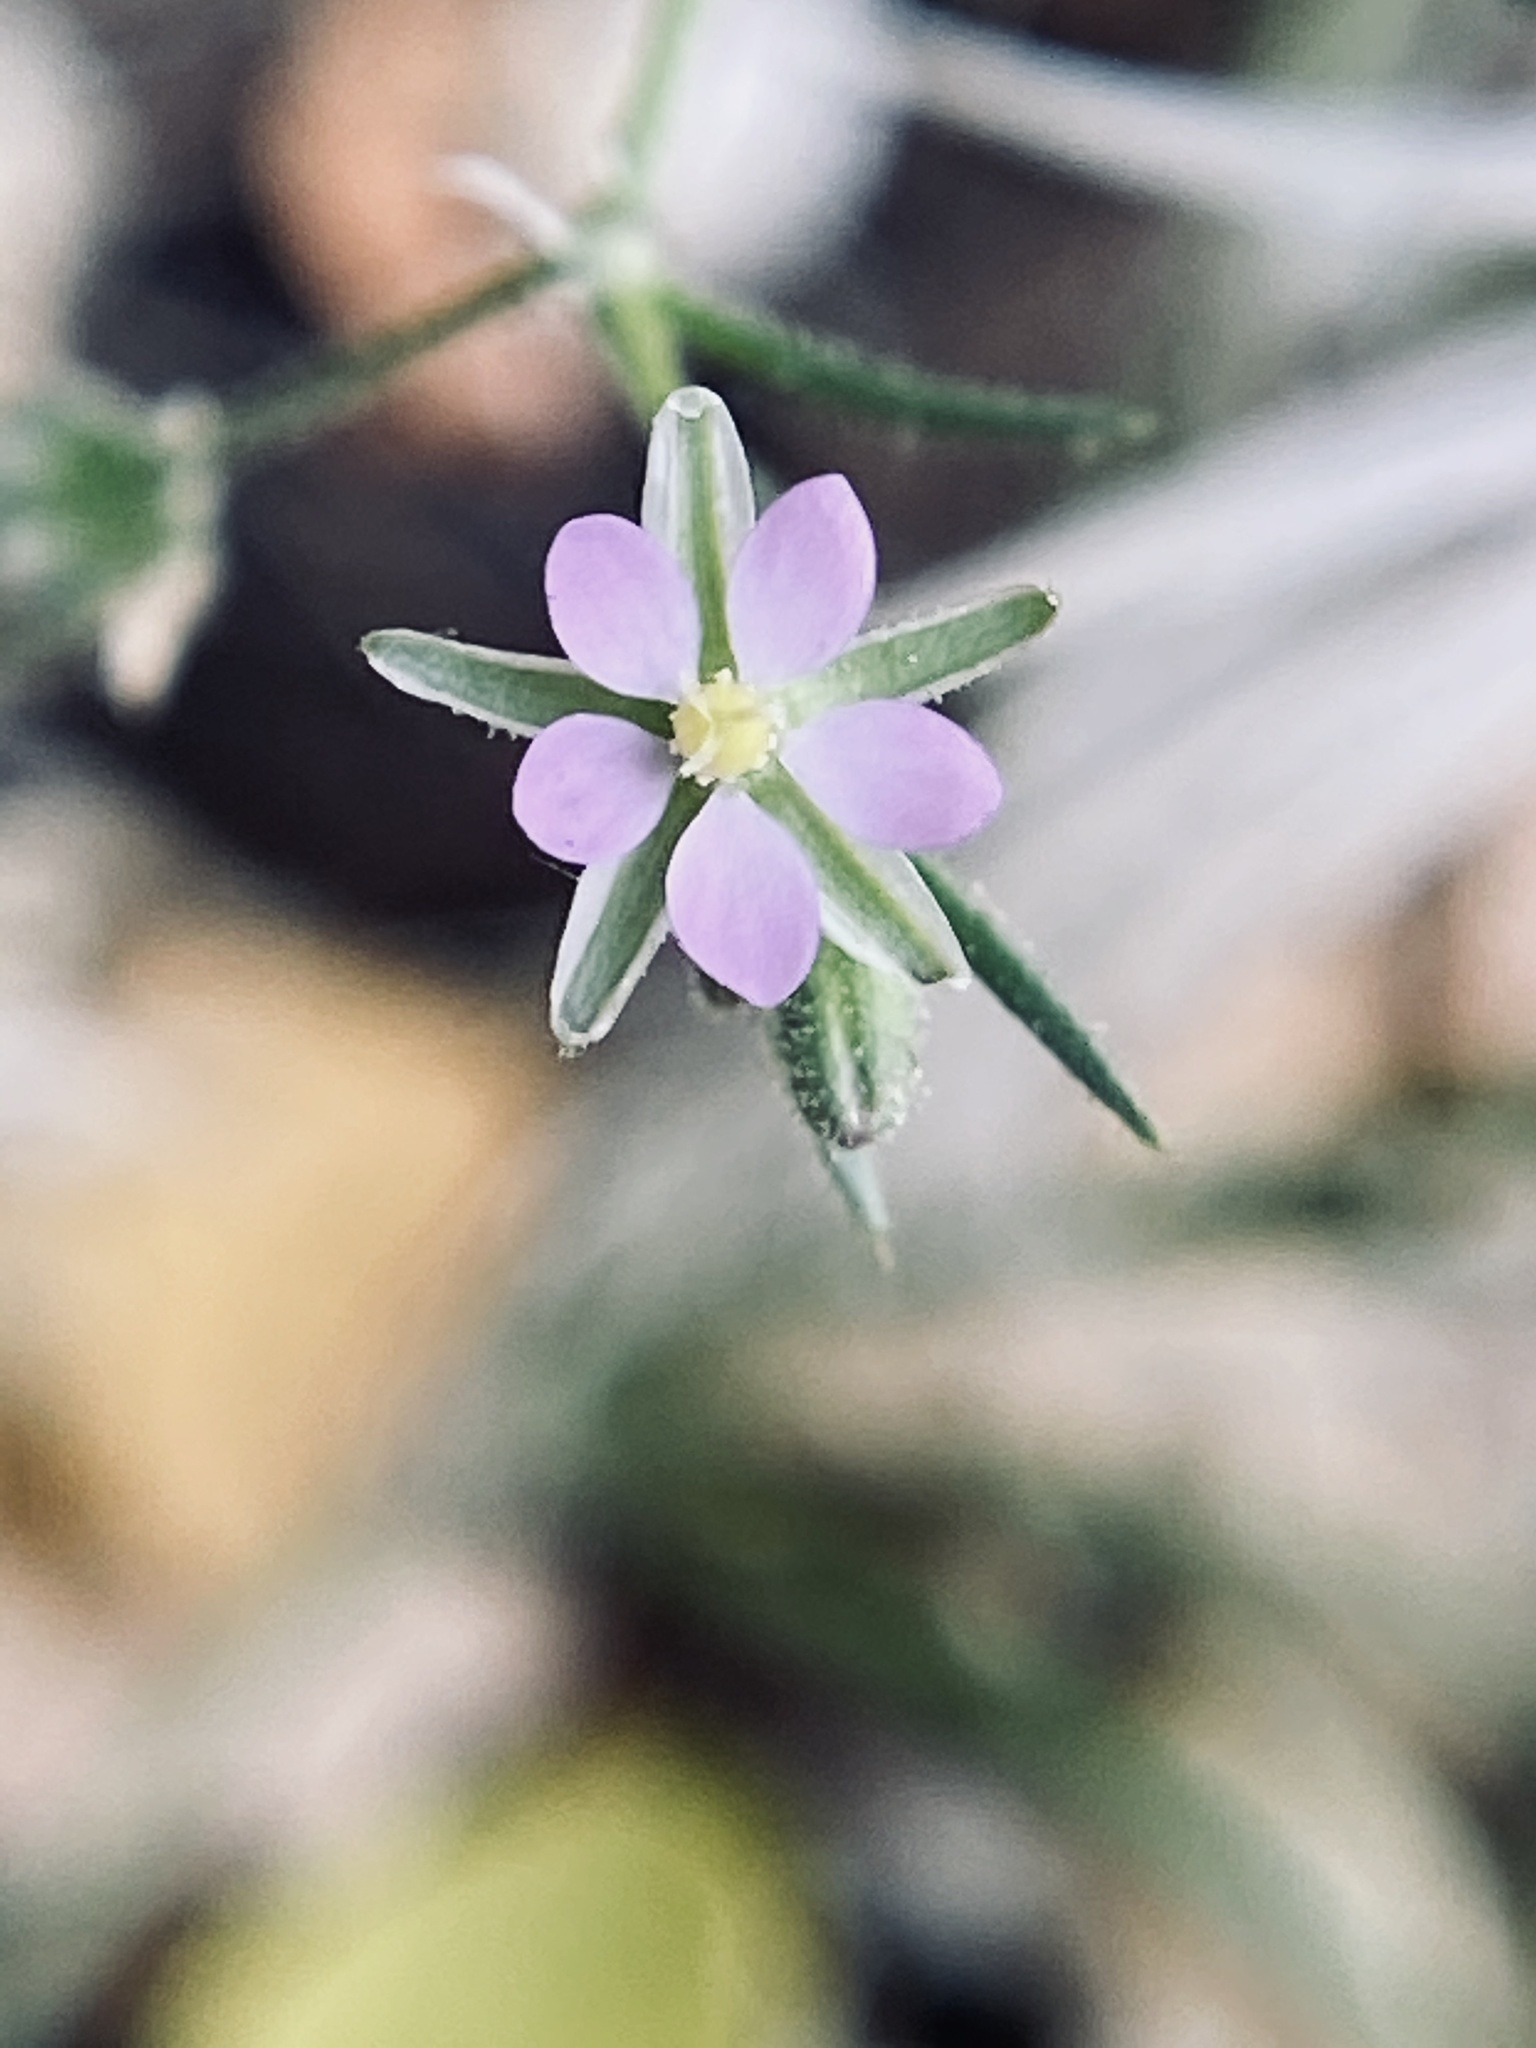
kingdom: Plantae
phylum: Tracheophyta
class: Magnoliopsida
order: Caryophyllales
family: Caryophyllaceae
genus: Spergularia
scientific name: Spergularia rubra
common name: Red sand-spurrey
